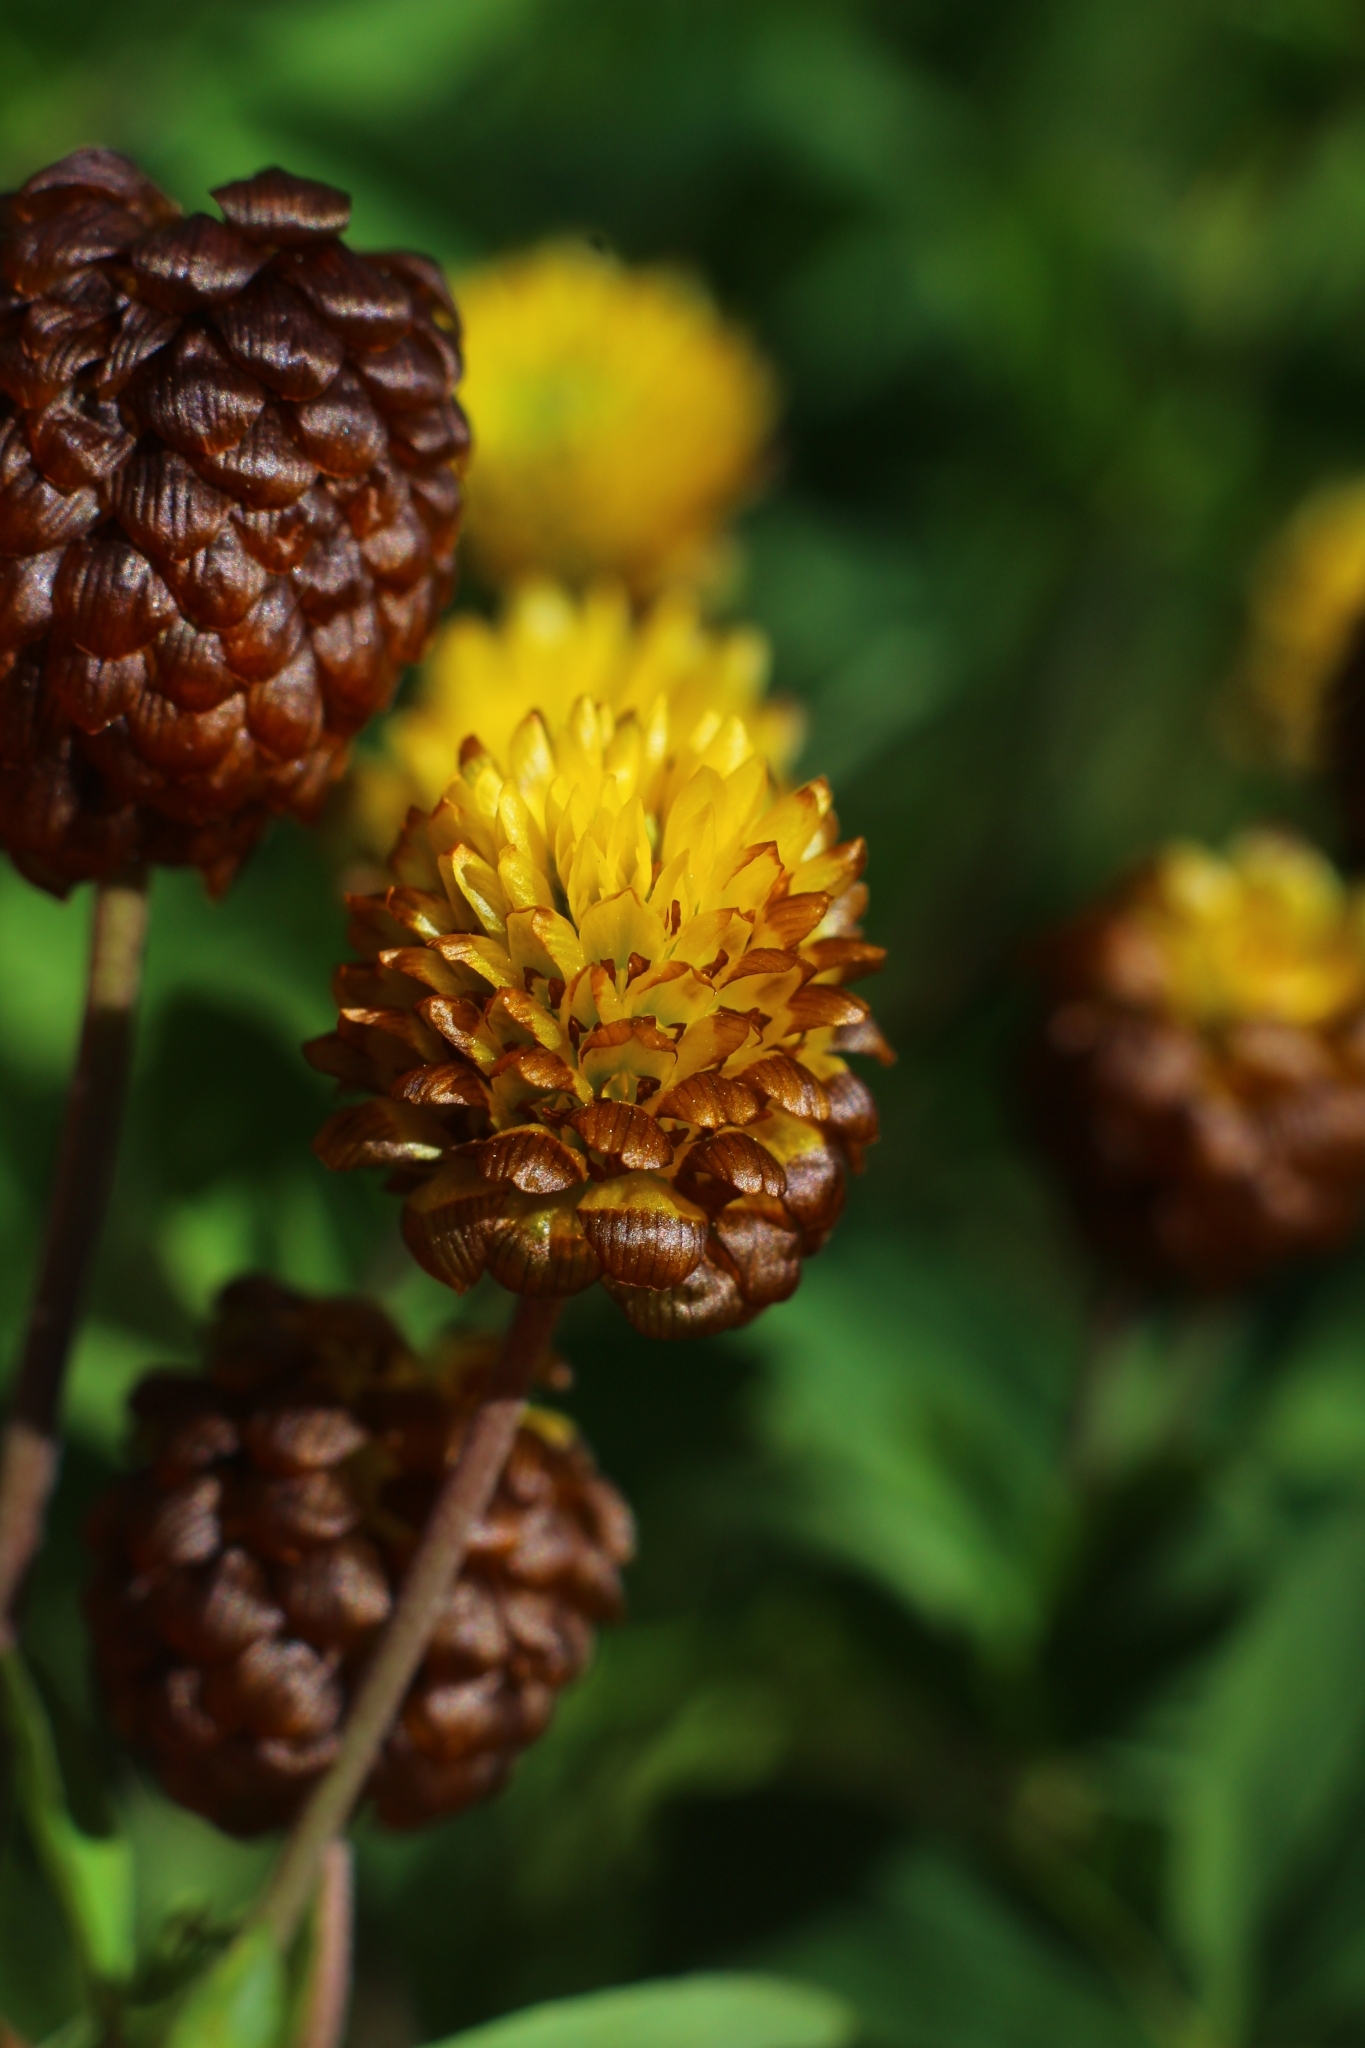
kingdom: Plantae
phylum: Tracheophyta
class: Magnoliopsida
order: Fabales
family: Fabaceae
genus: Trifolium
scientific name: Trifolium badium
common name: Brown clover
